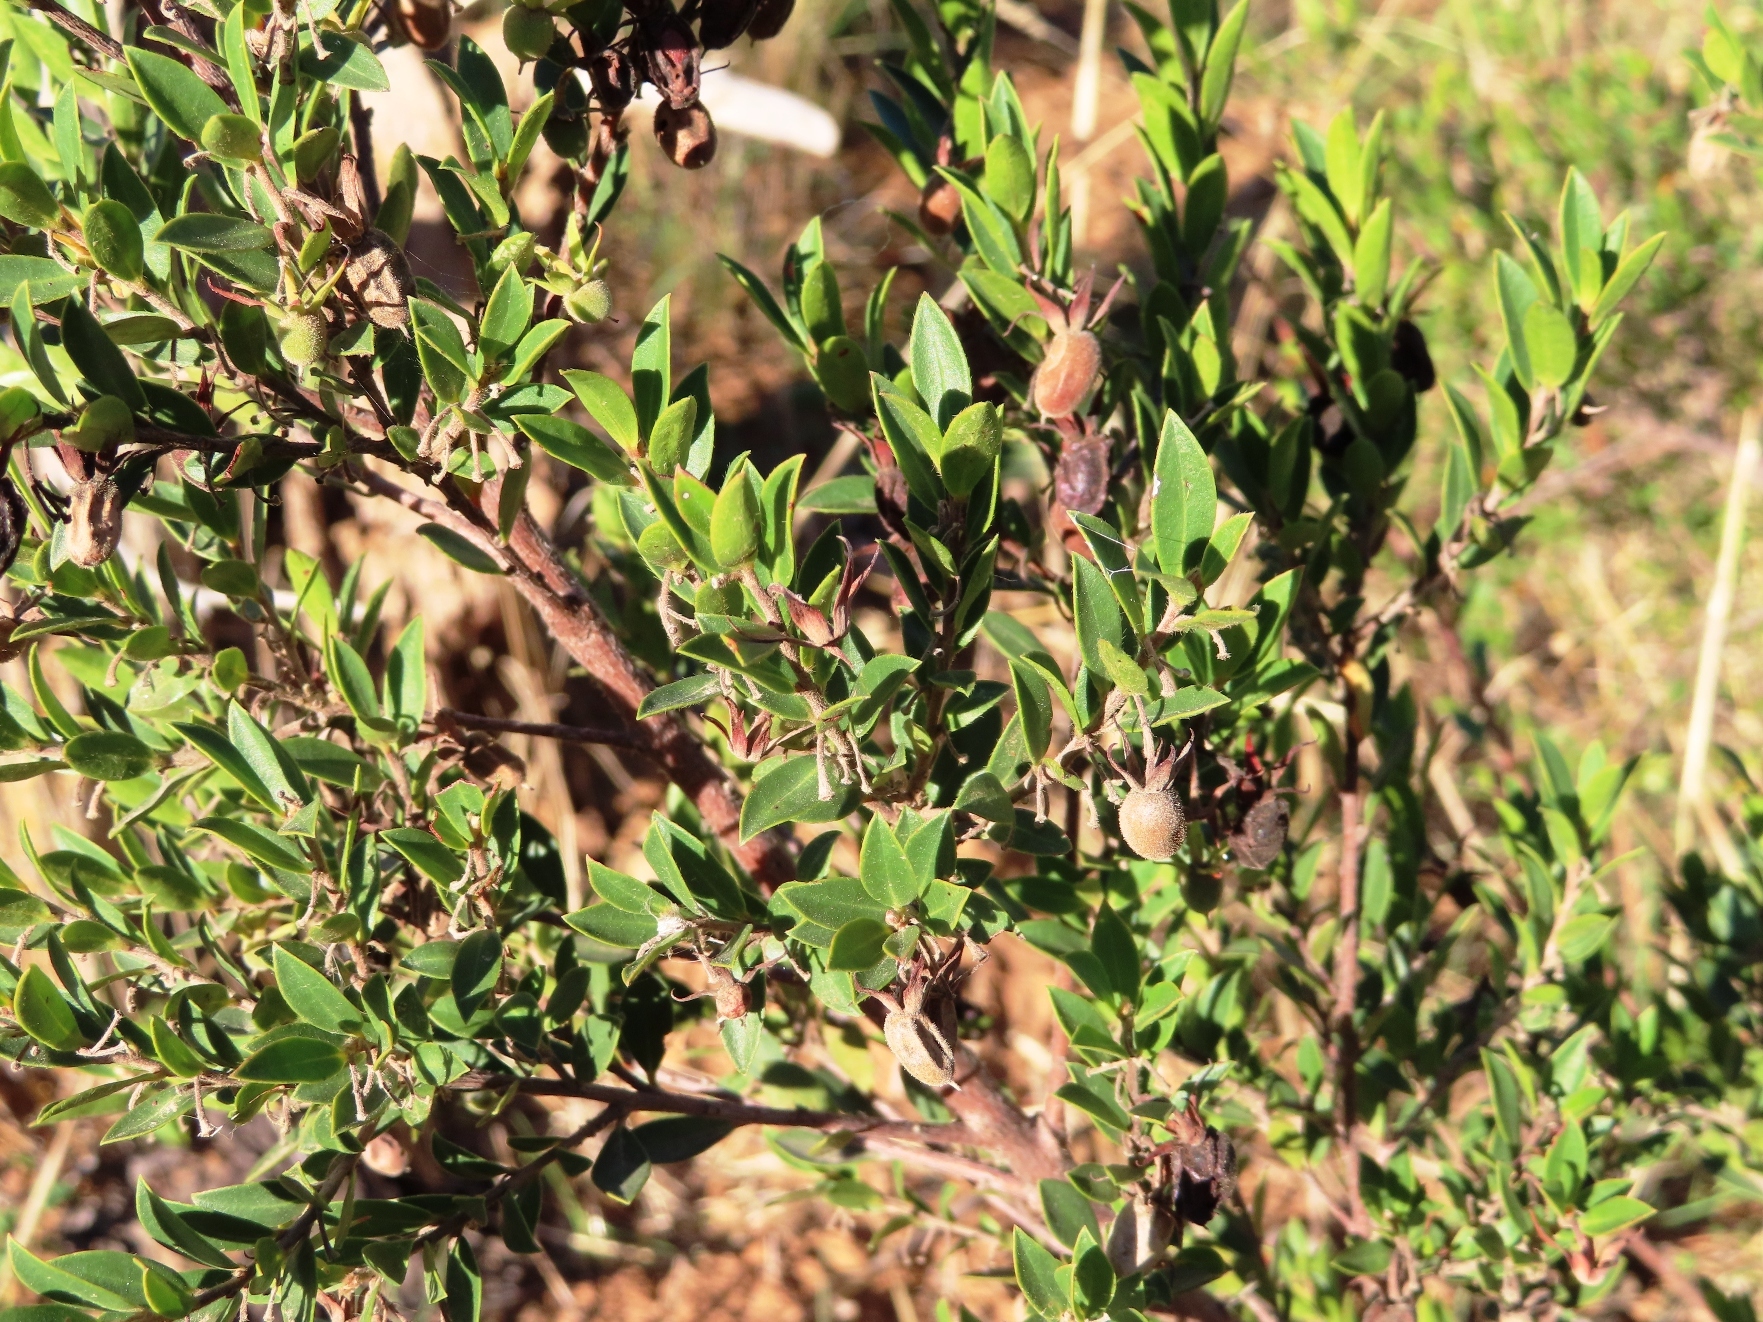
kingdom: Plantae
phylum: Tracheophyta
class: Magnoliopsida
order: Ericales
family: Ebenaceae
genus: Diospyros
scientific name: Diospyros glabra
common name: Fynbos star apple
